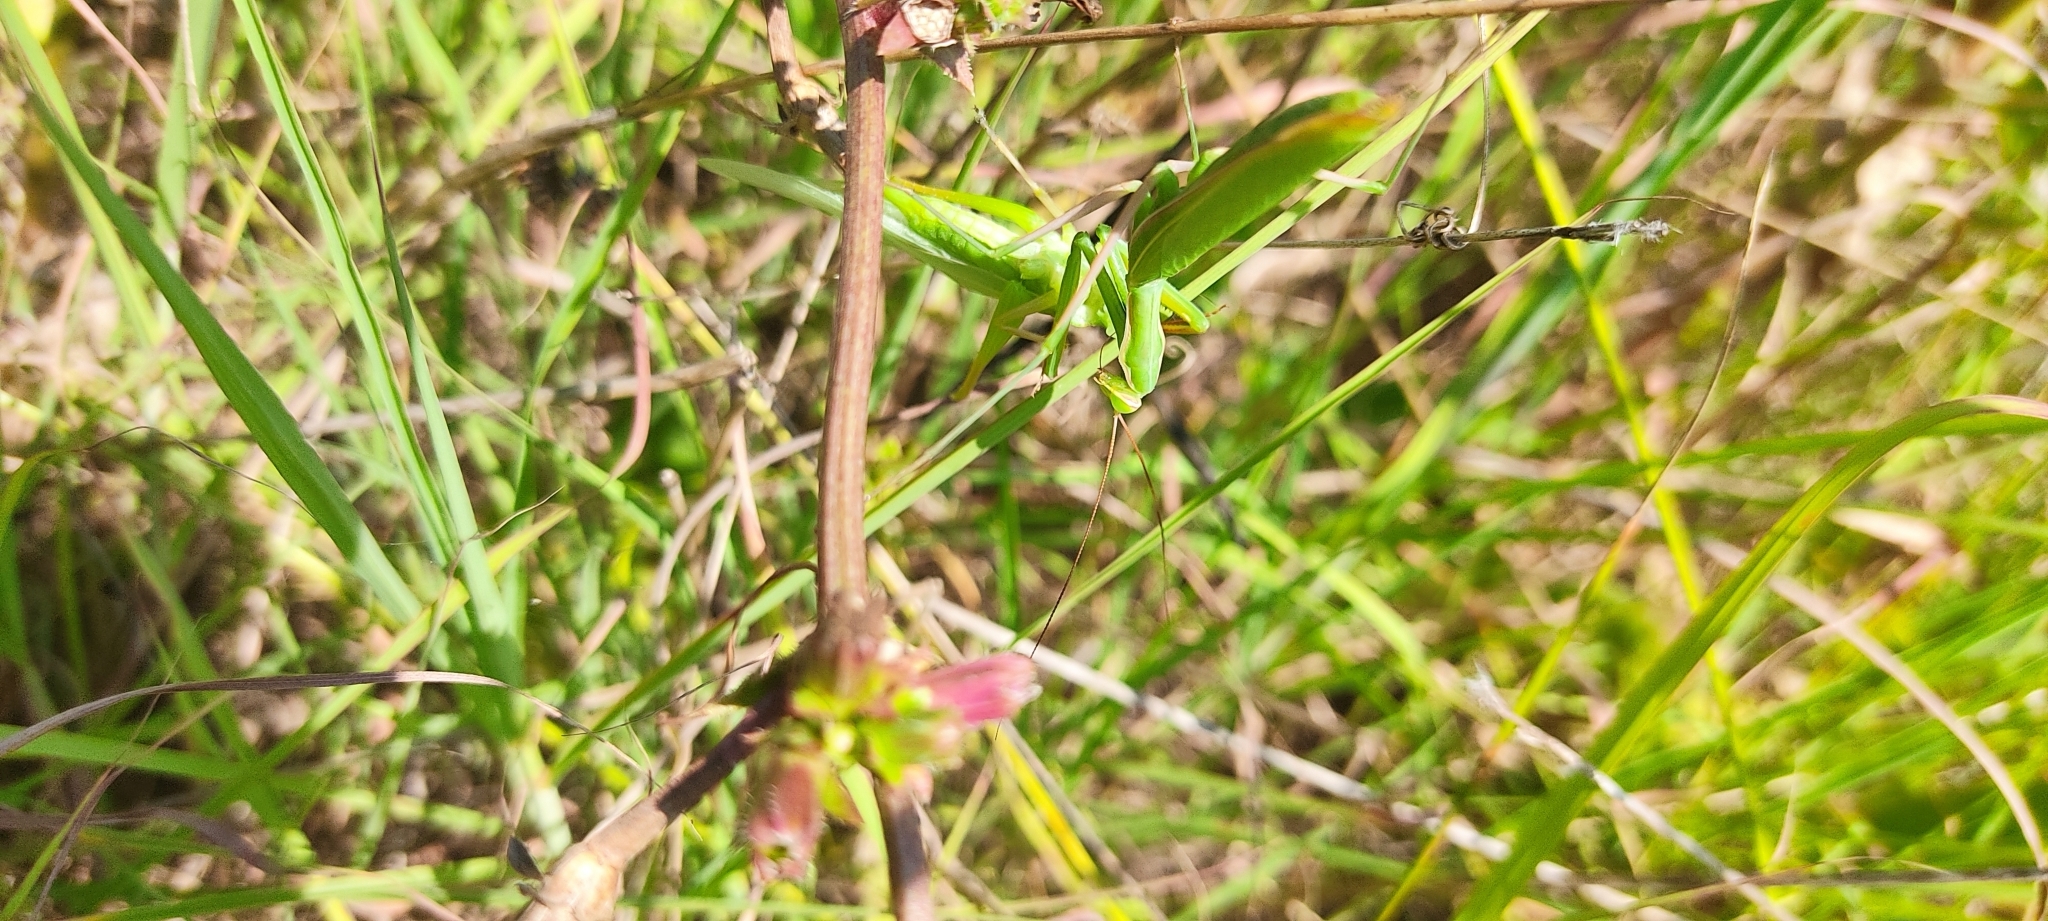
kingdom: Animalia
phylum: Arthropoda
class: Insecta
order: Mantodea
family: Mantidae
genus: Mantis
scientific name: Mantis religiosa
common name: Praying mantis
